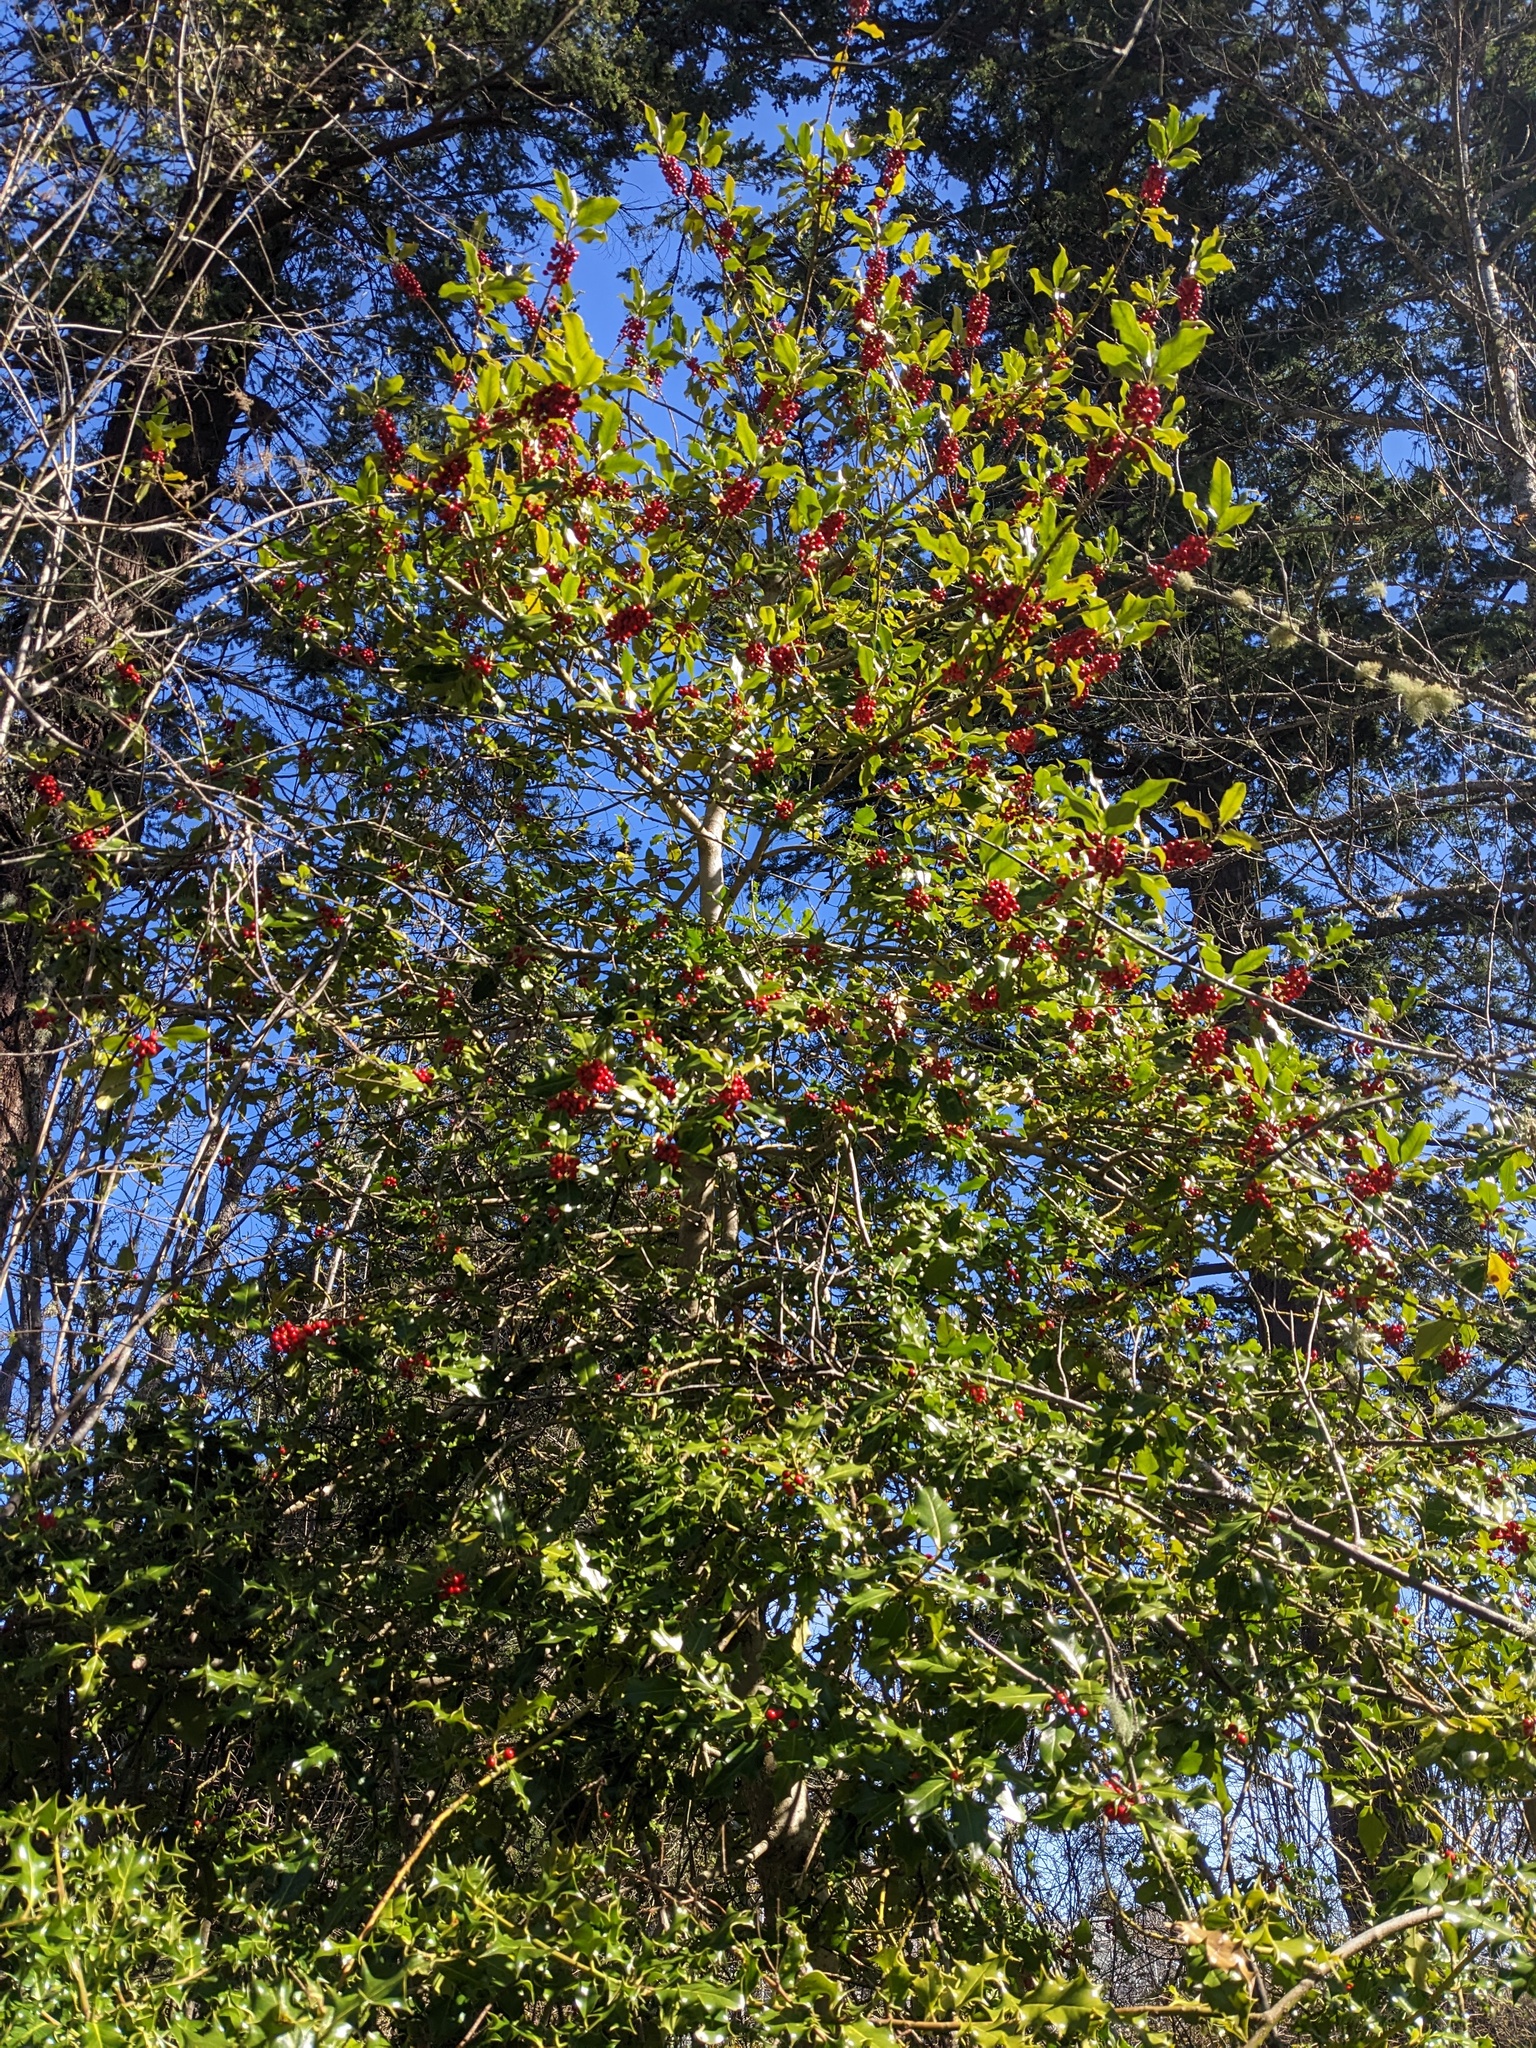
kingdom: Plantae
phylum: Tracheophyta
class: Magnoliopsida
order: Aquifoliales
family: Aquifoliaceae
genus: Ilex
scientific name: Ilex aquifolium
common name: English holly
